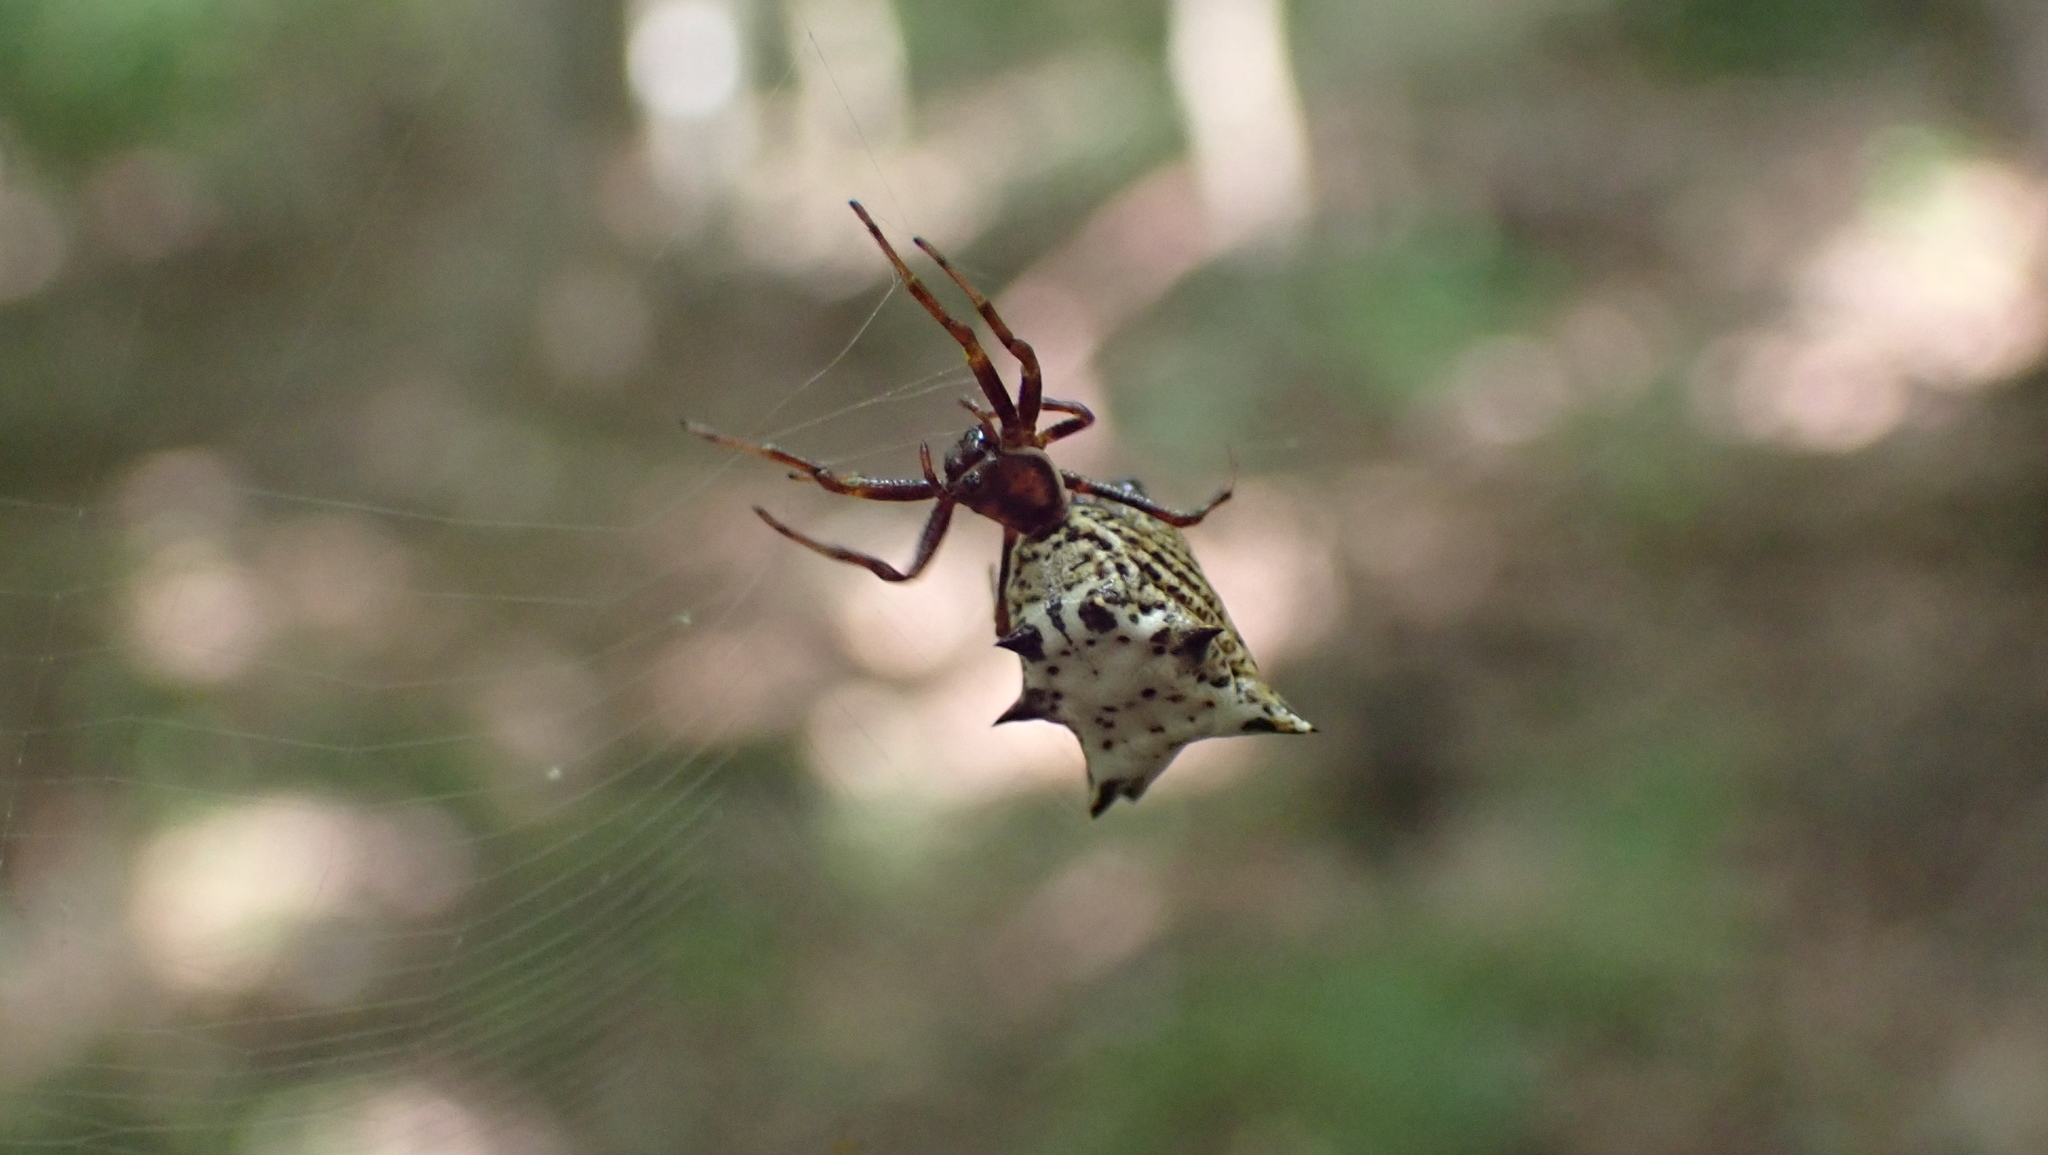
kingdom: Animalia
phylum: Arthropoda
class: Arachnida
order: Araneae
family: Araneidae
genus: Micrathena
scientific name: Micrathena gracilis
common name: Orb weavers
